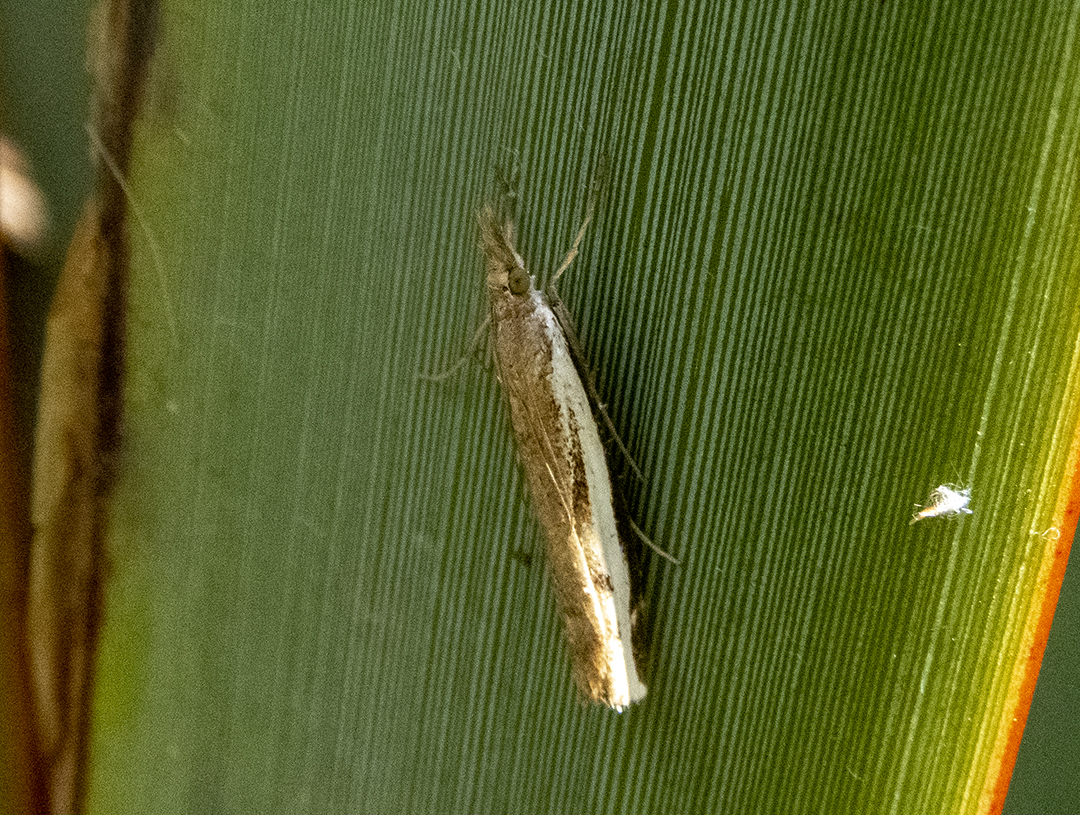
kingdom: Animalia
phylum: Arthropoda
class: Insecta
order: Lepidoptera
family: Crambidae
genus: Orocrambus
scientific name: Orocrambus flexuosellus
